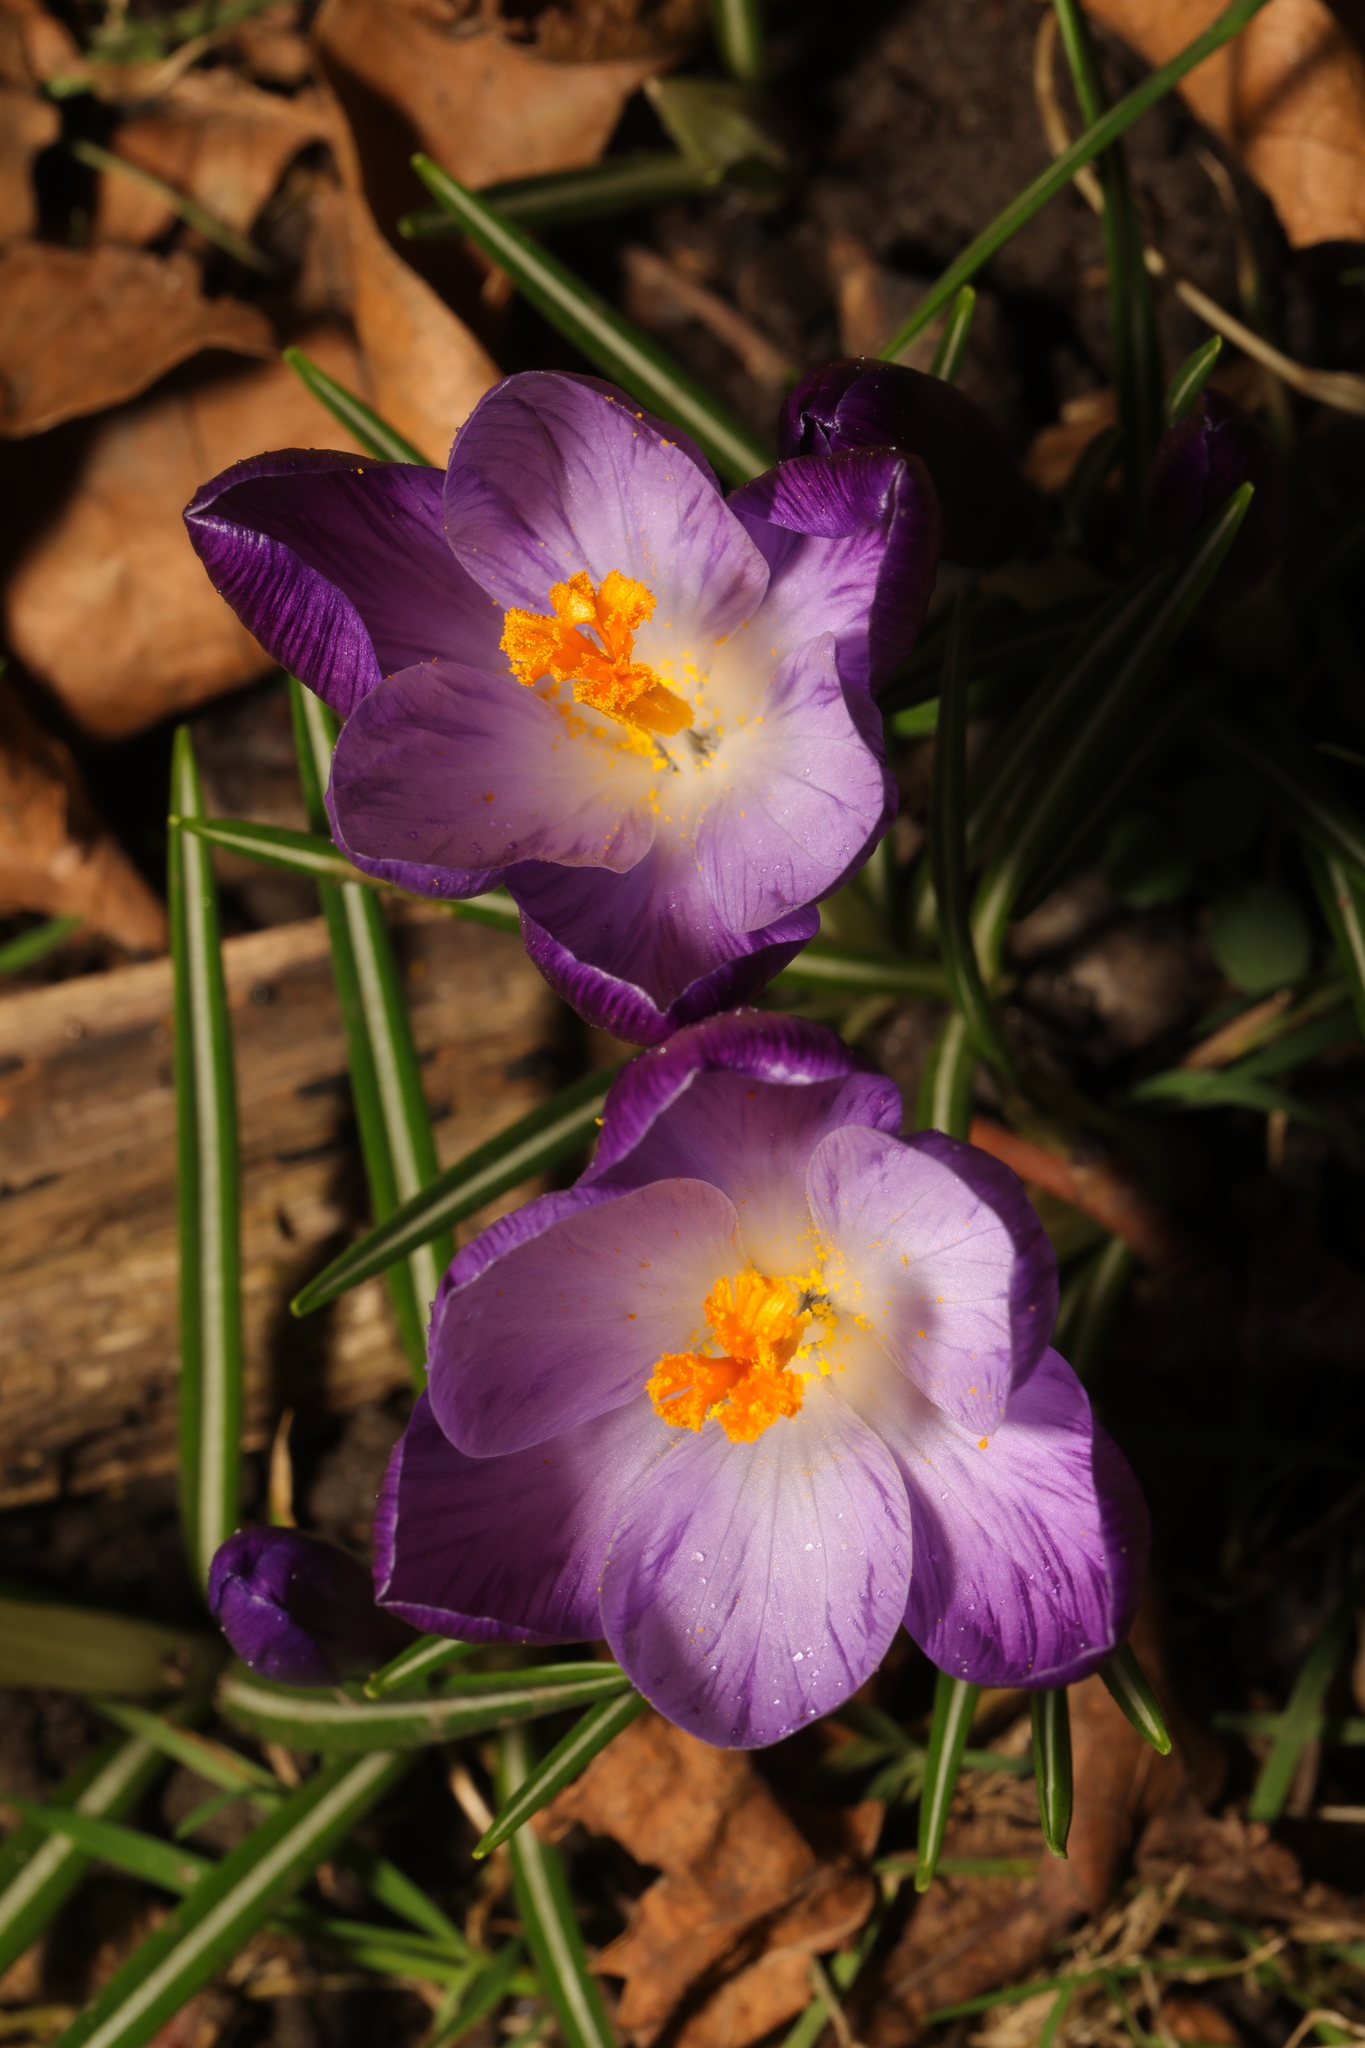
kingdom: Plantae
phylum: Tracheophyta
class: Liliopsida
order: Asparagales
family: Iridaceae
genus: Crocus
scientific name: Crocus
